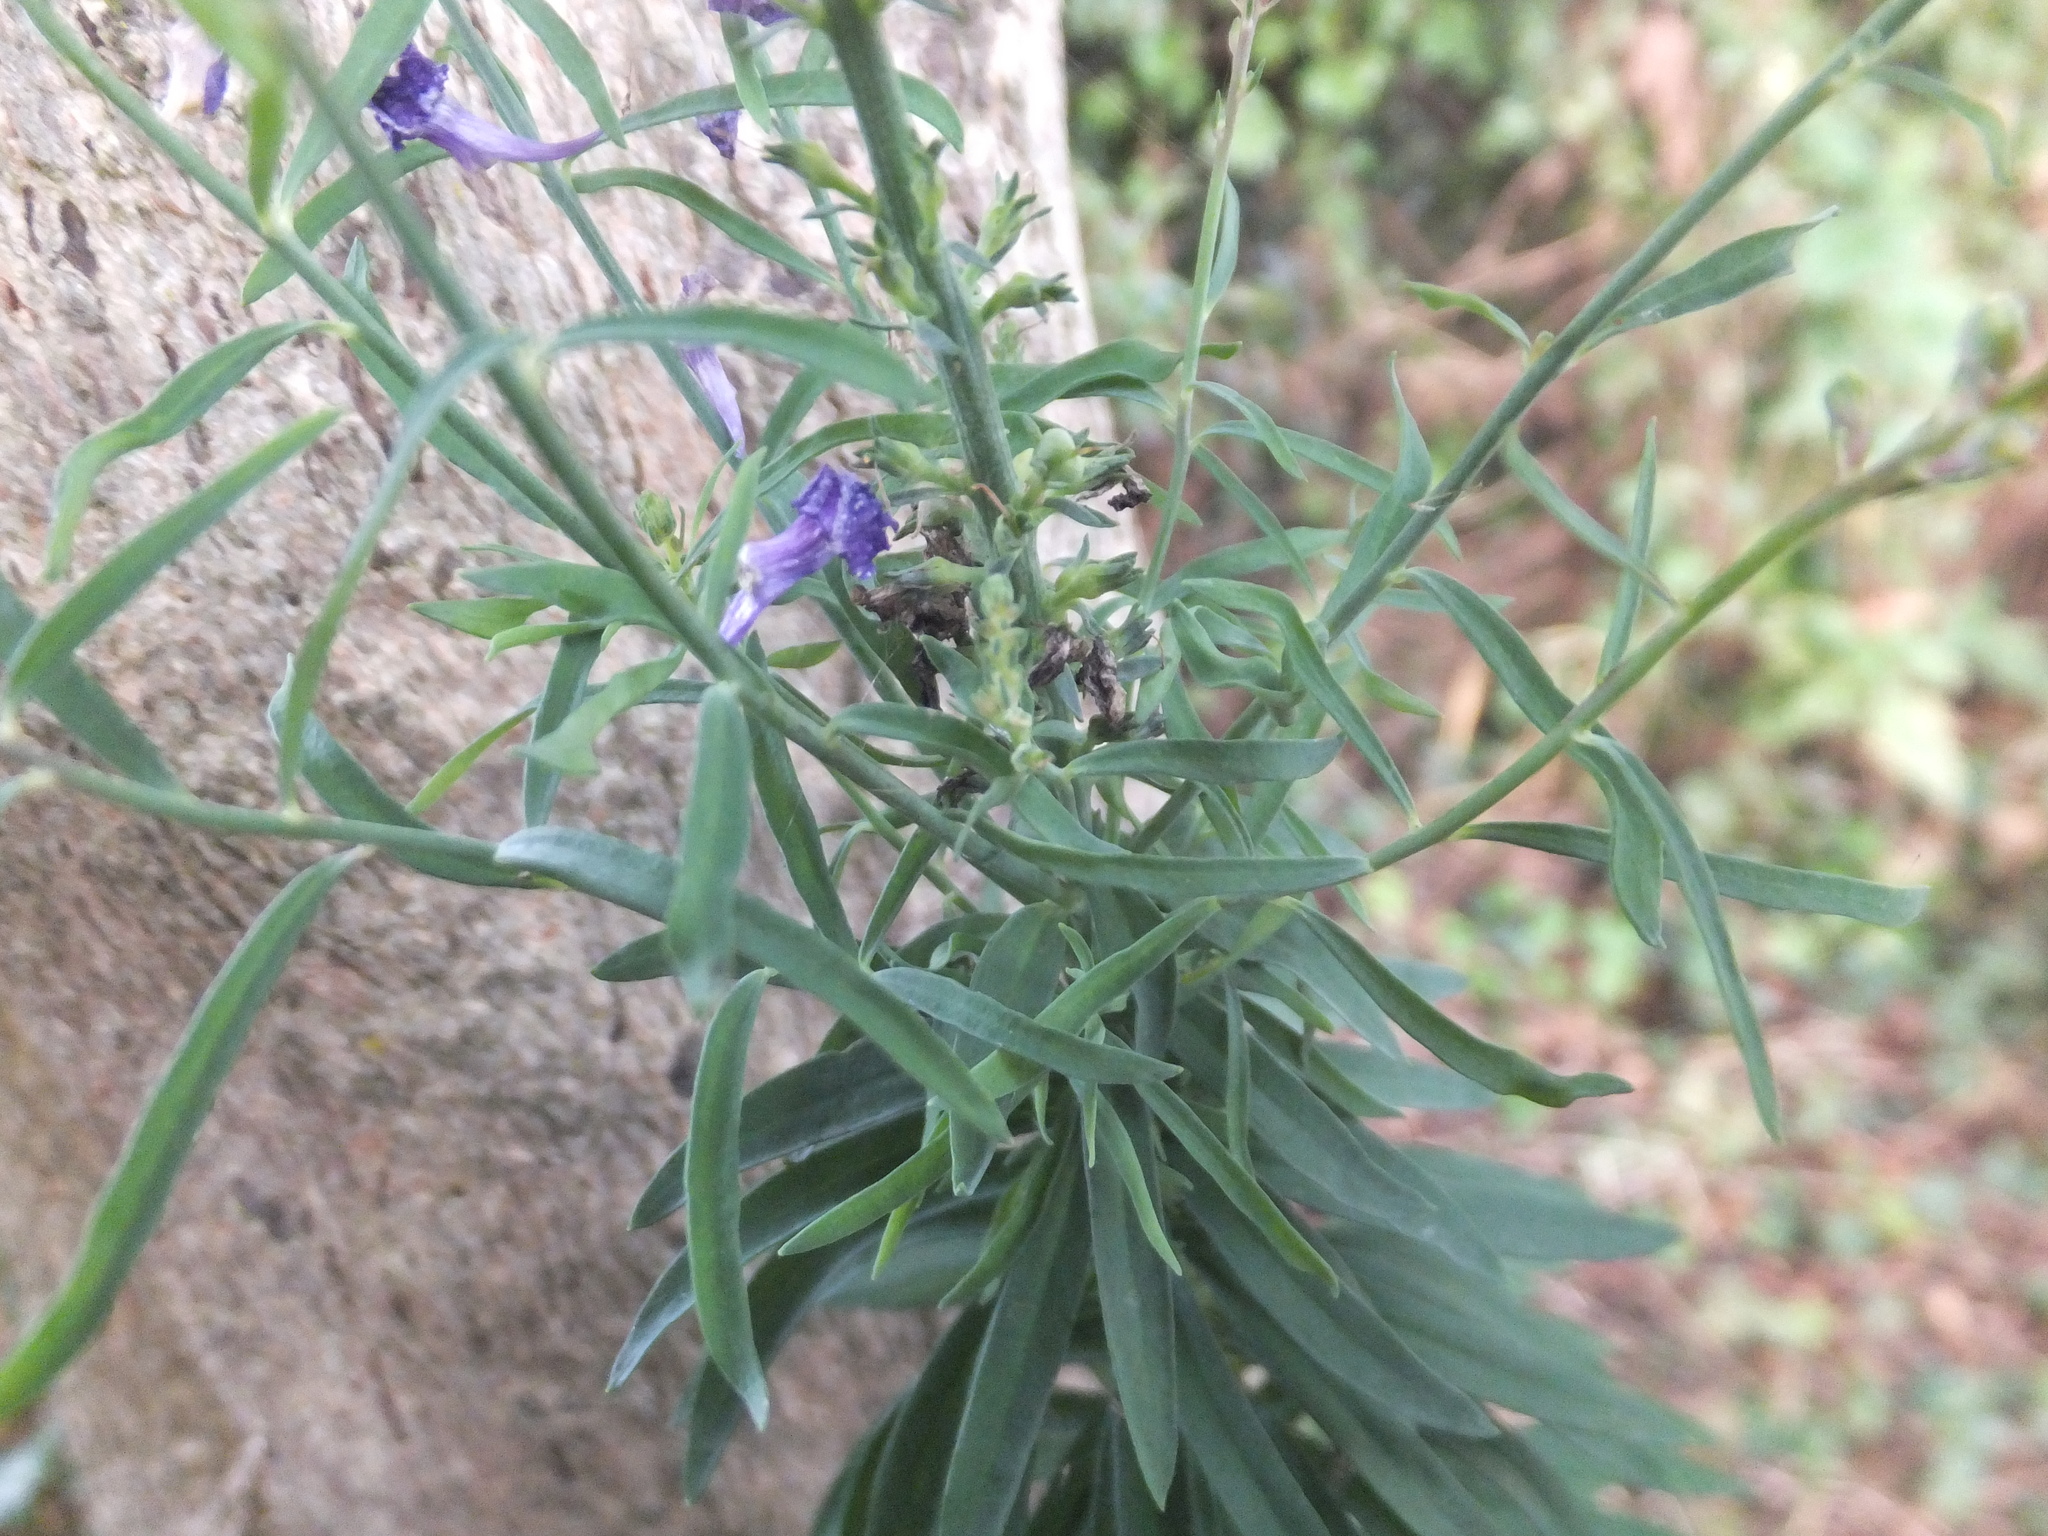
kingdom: Plantae
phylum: Tracheophyta
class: Magnoliopsida
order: Lamiales
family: Plantaginaceae
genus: Linaria
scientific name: Linaria purpurea
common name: Purple toadflax
